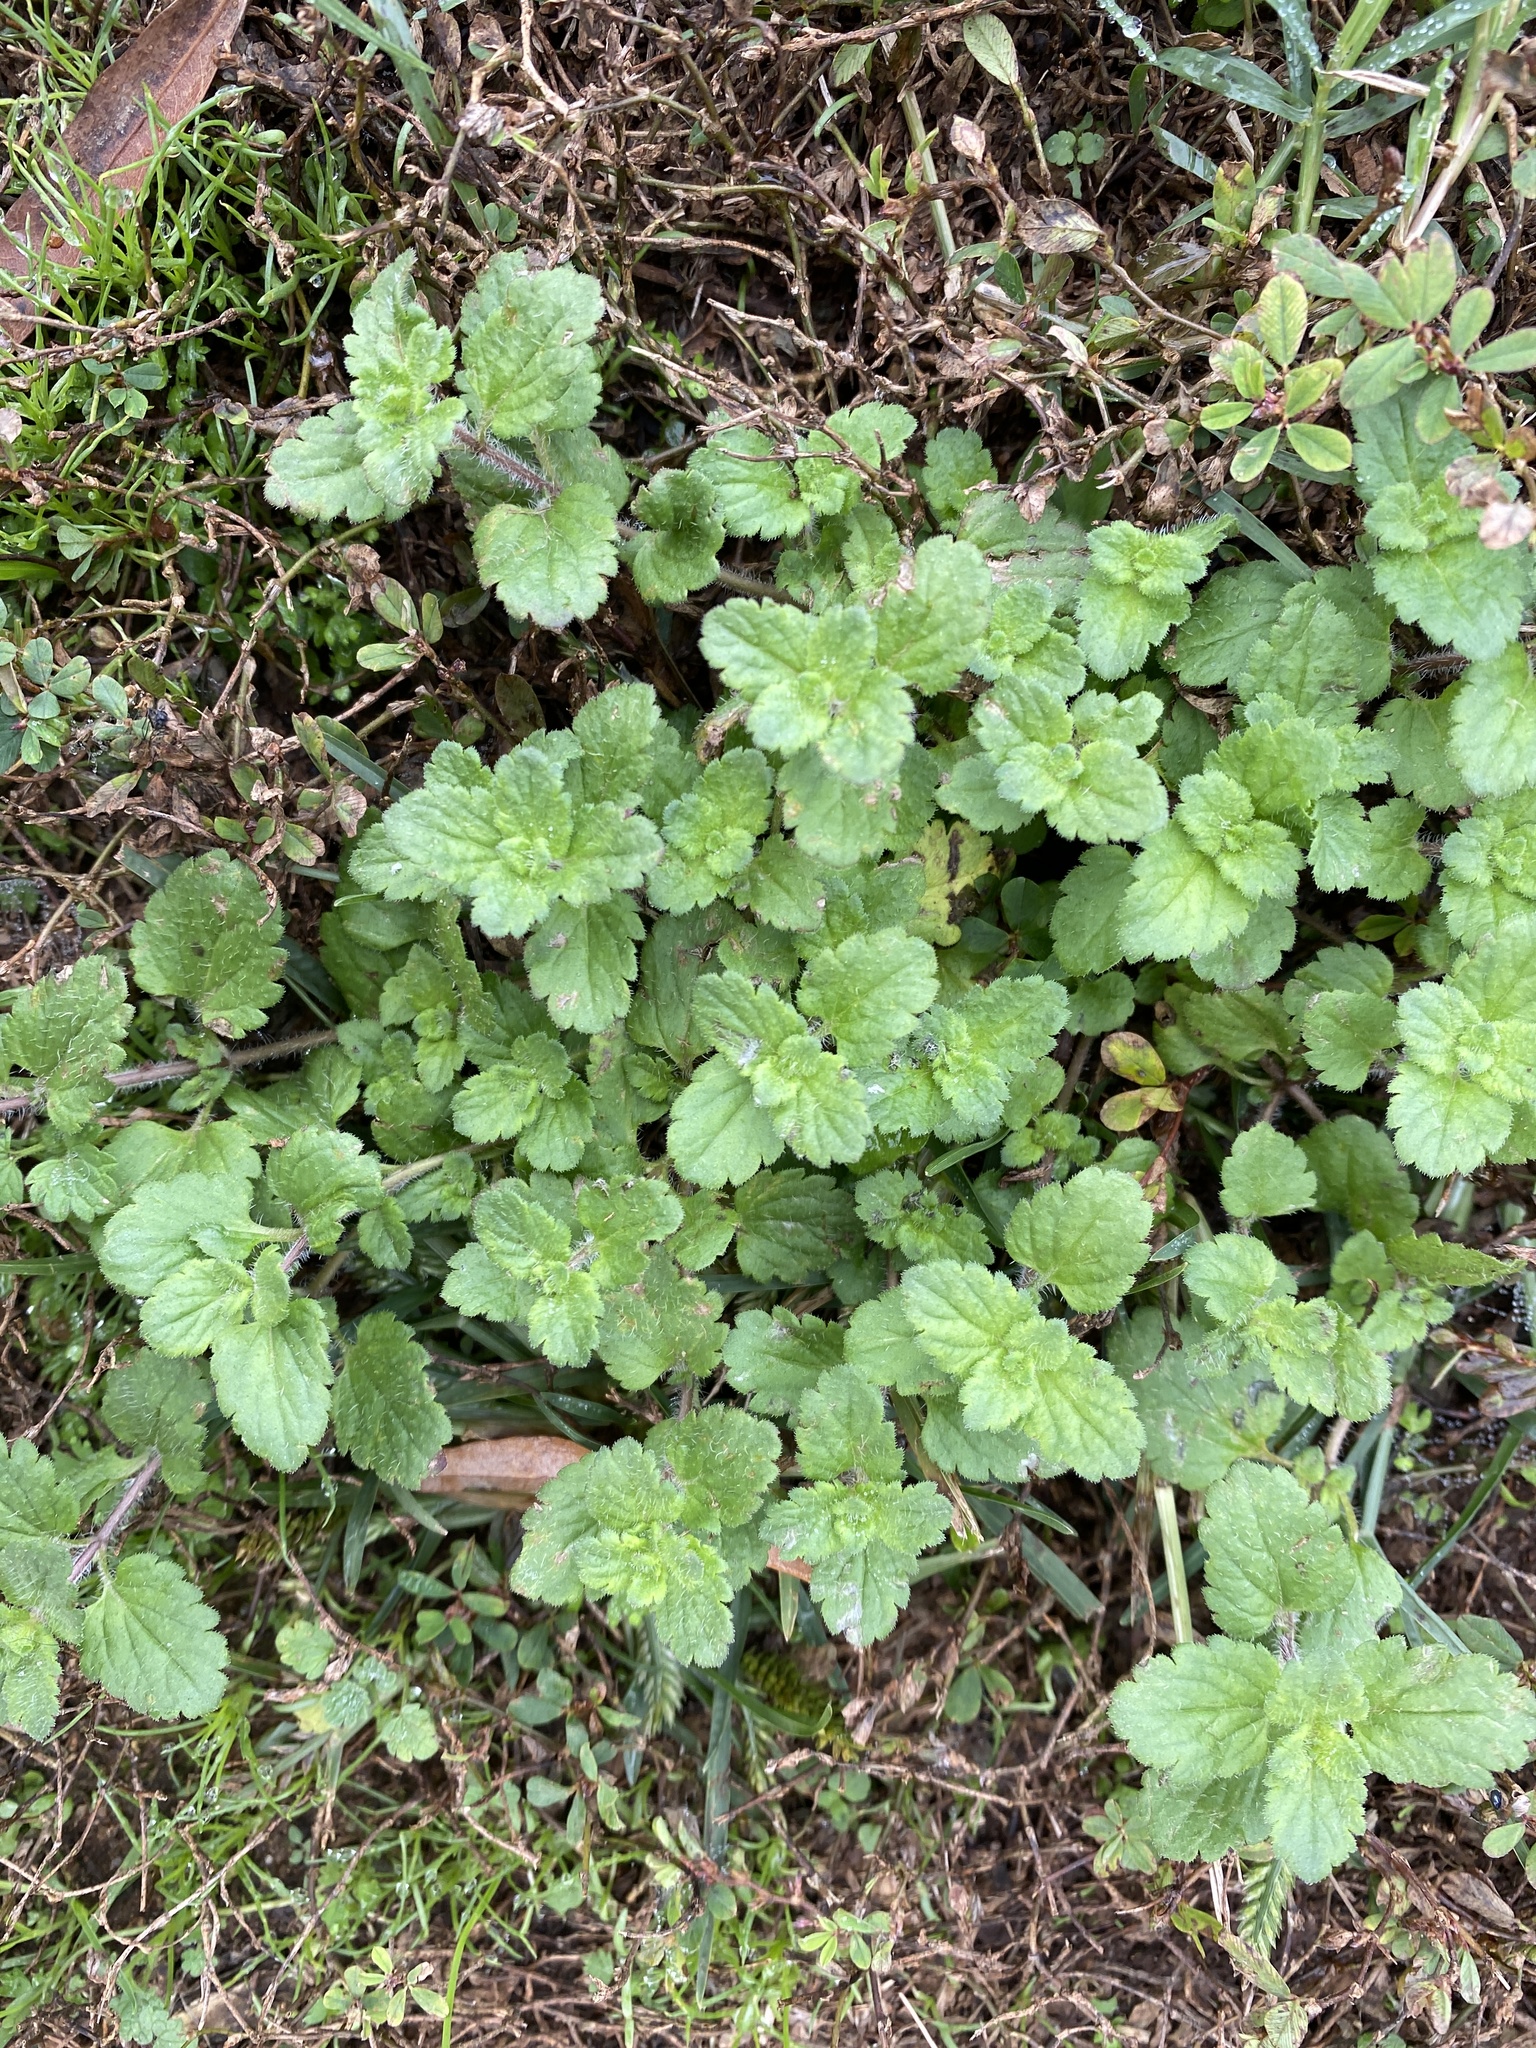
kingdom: Plantae
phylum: Tracheophyta
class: Magnoliopsida
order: Lamiales
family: Plantaginaceae
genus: Veronica
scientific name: Veronica chamaedrys
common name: Germander speedwell
